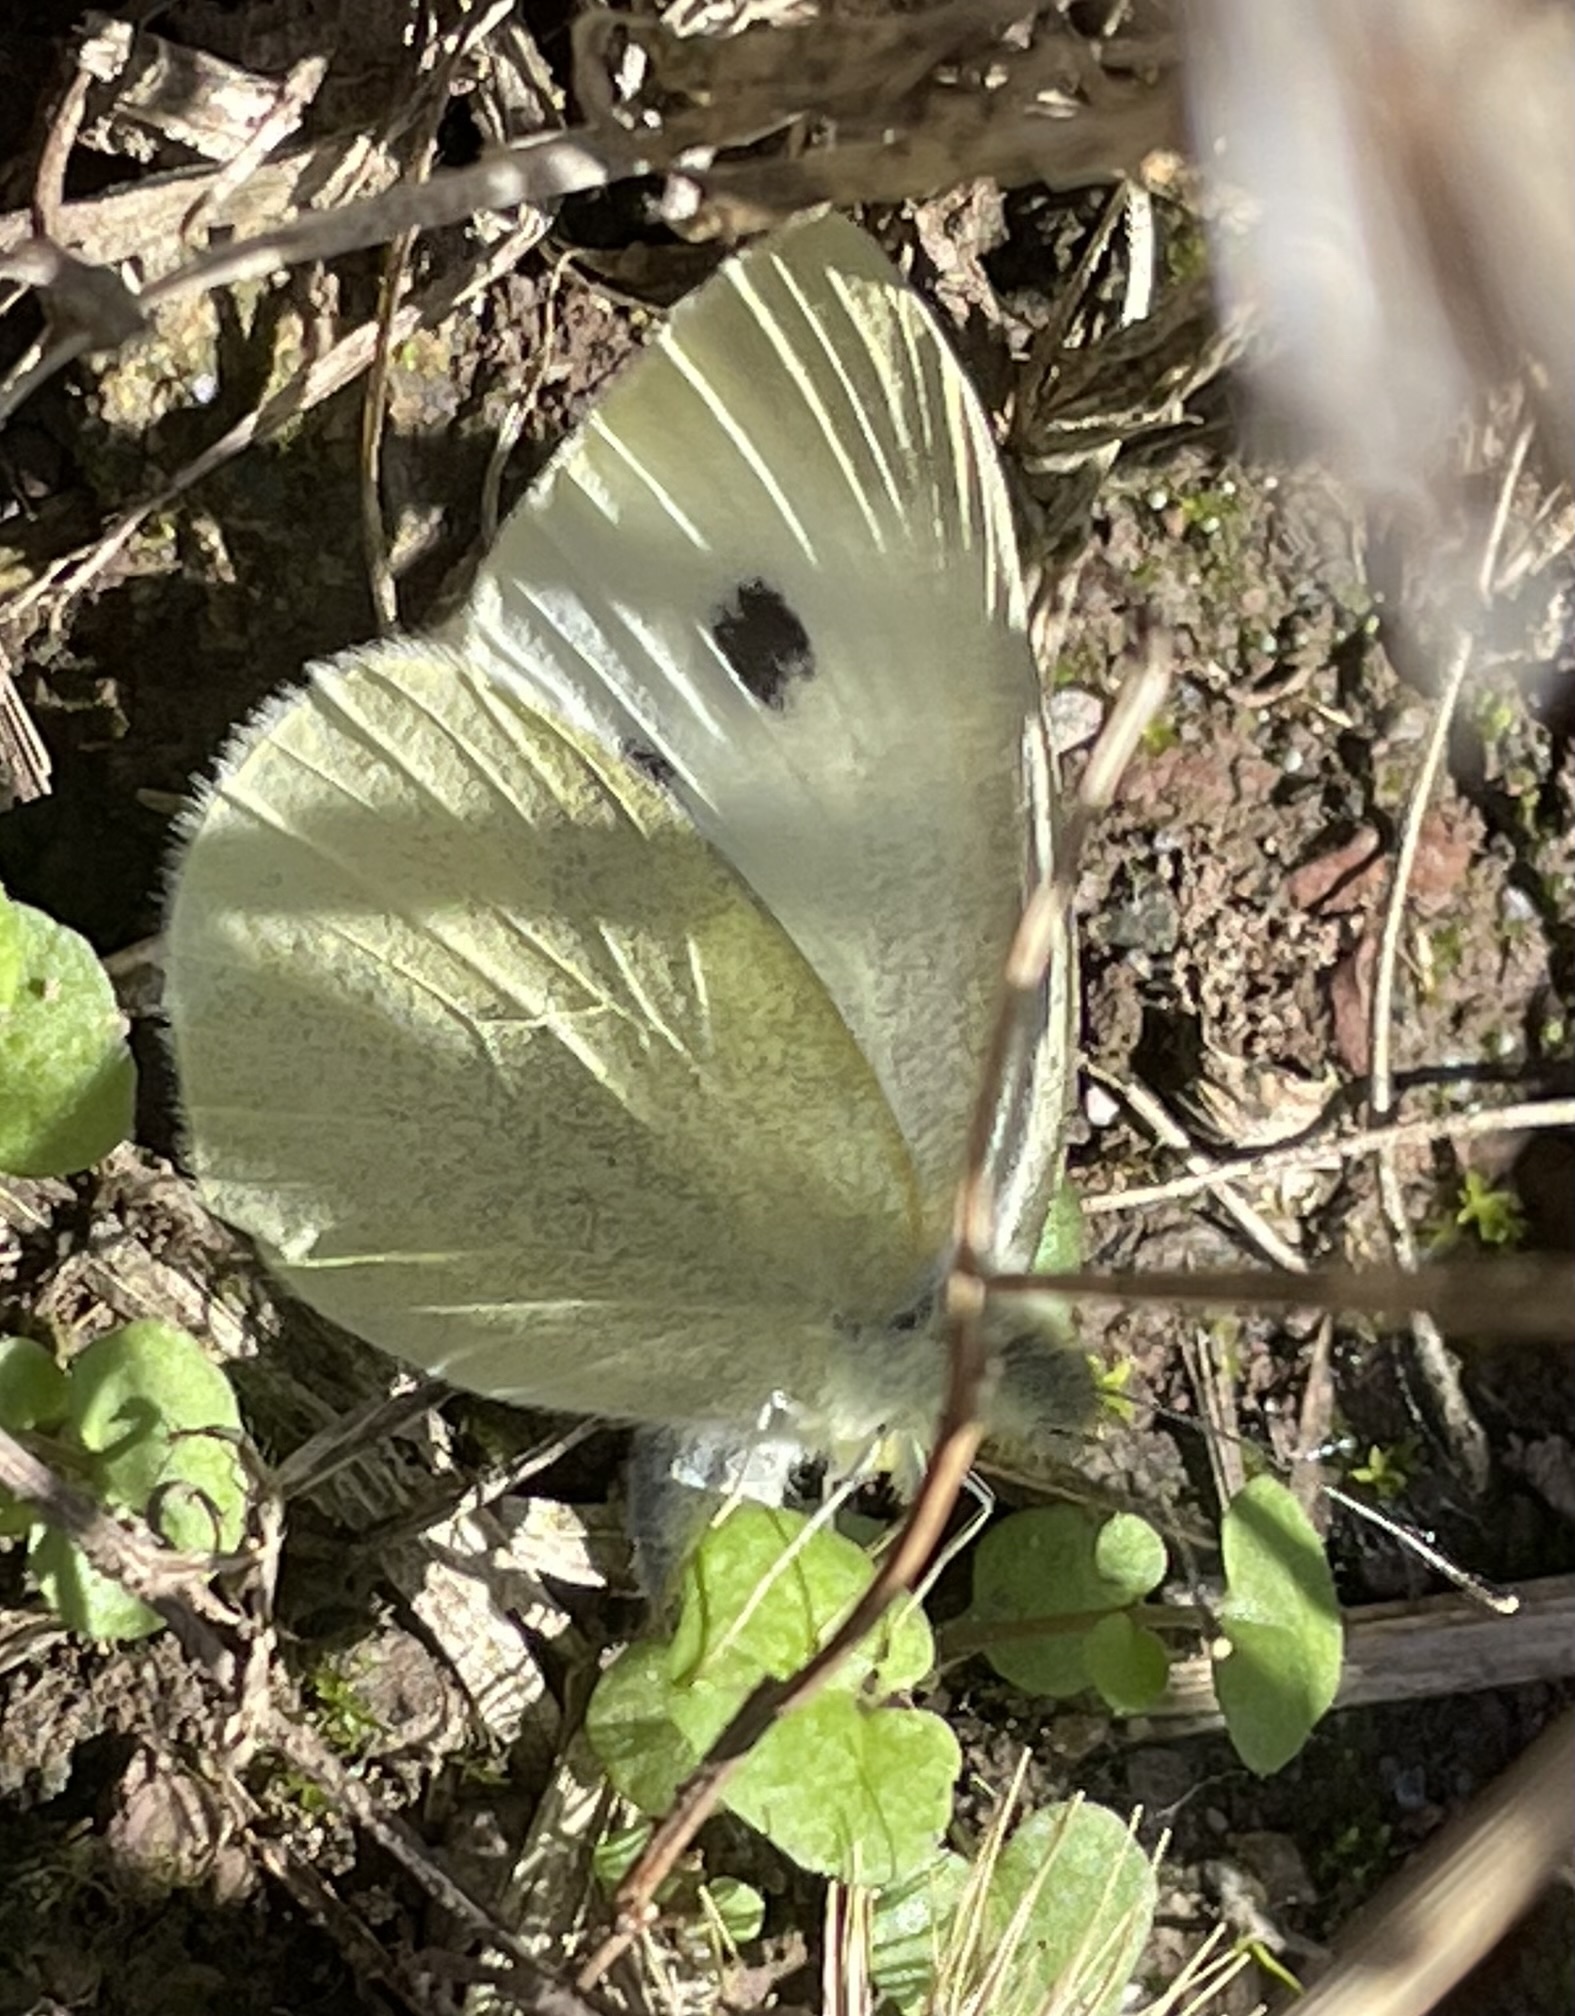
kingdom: Animalia
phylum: Arthropoda
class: Insecta
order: Lepidoptera
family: Pieridae
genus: Pieris
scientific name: Pieris rapae
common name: Small white
